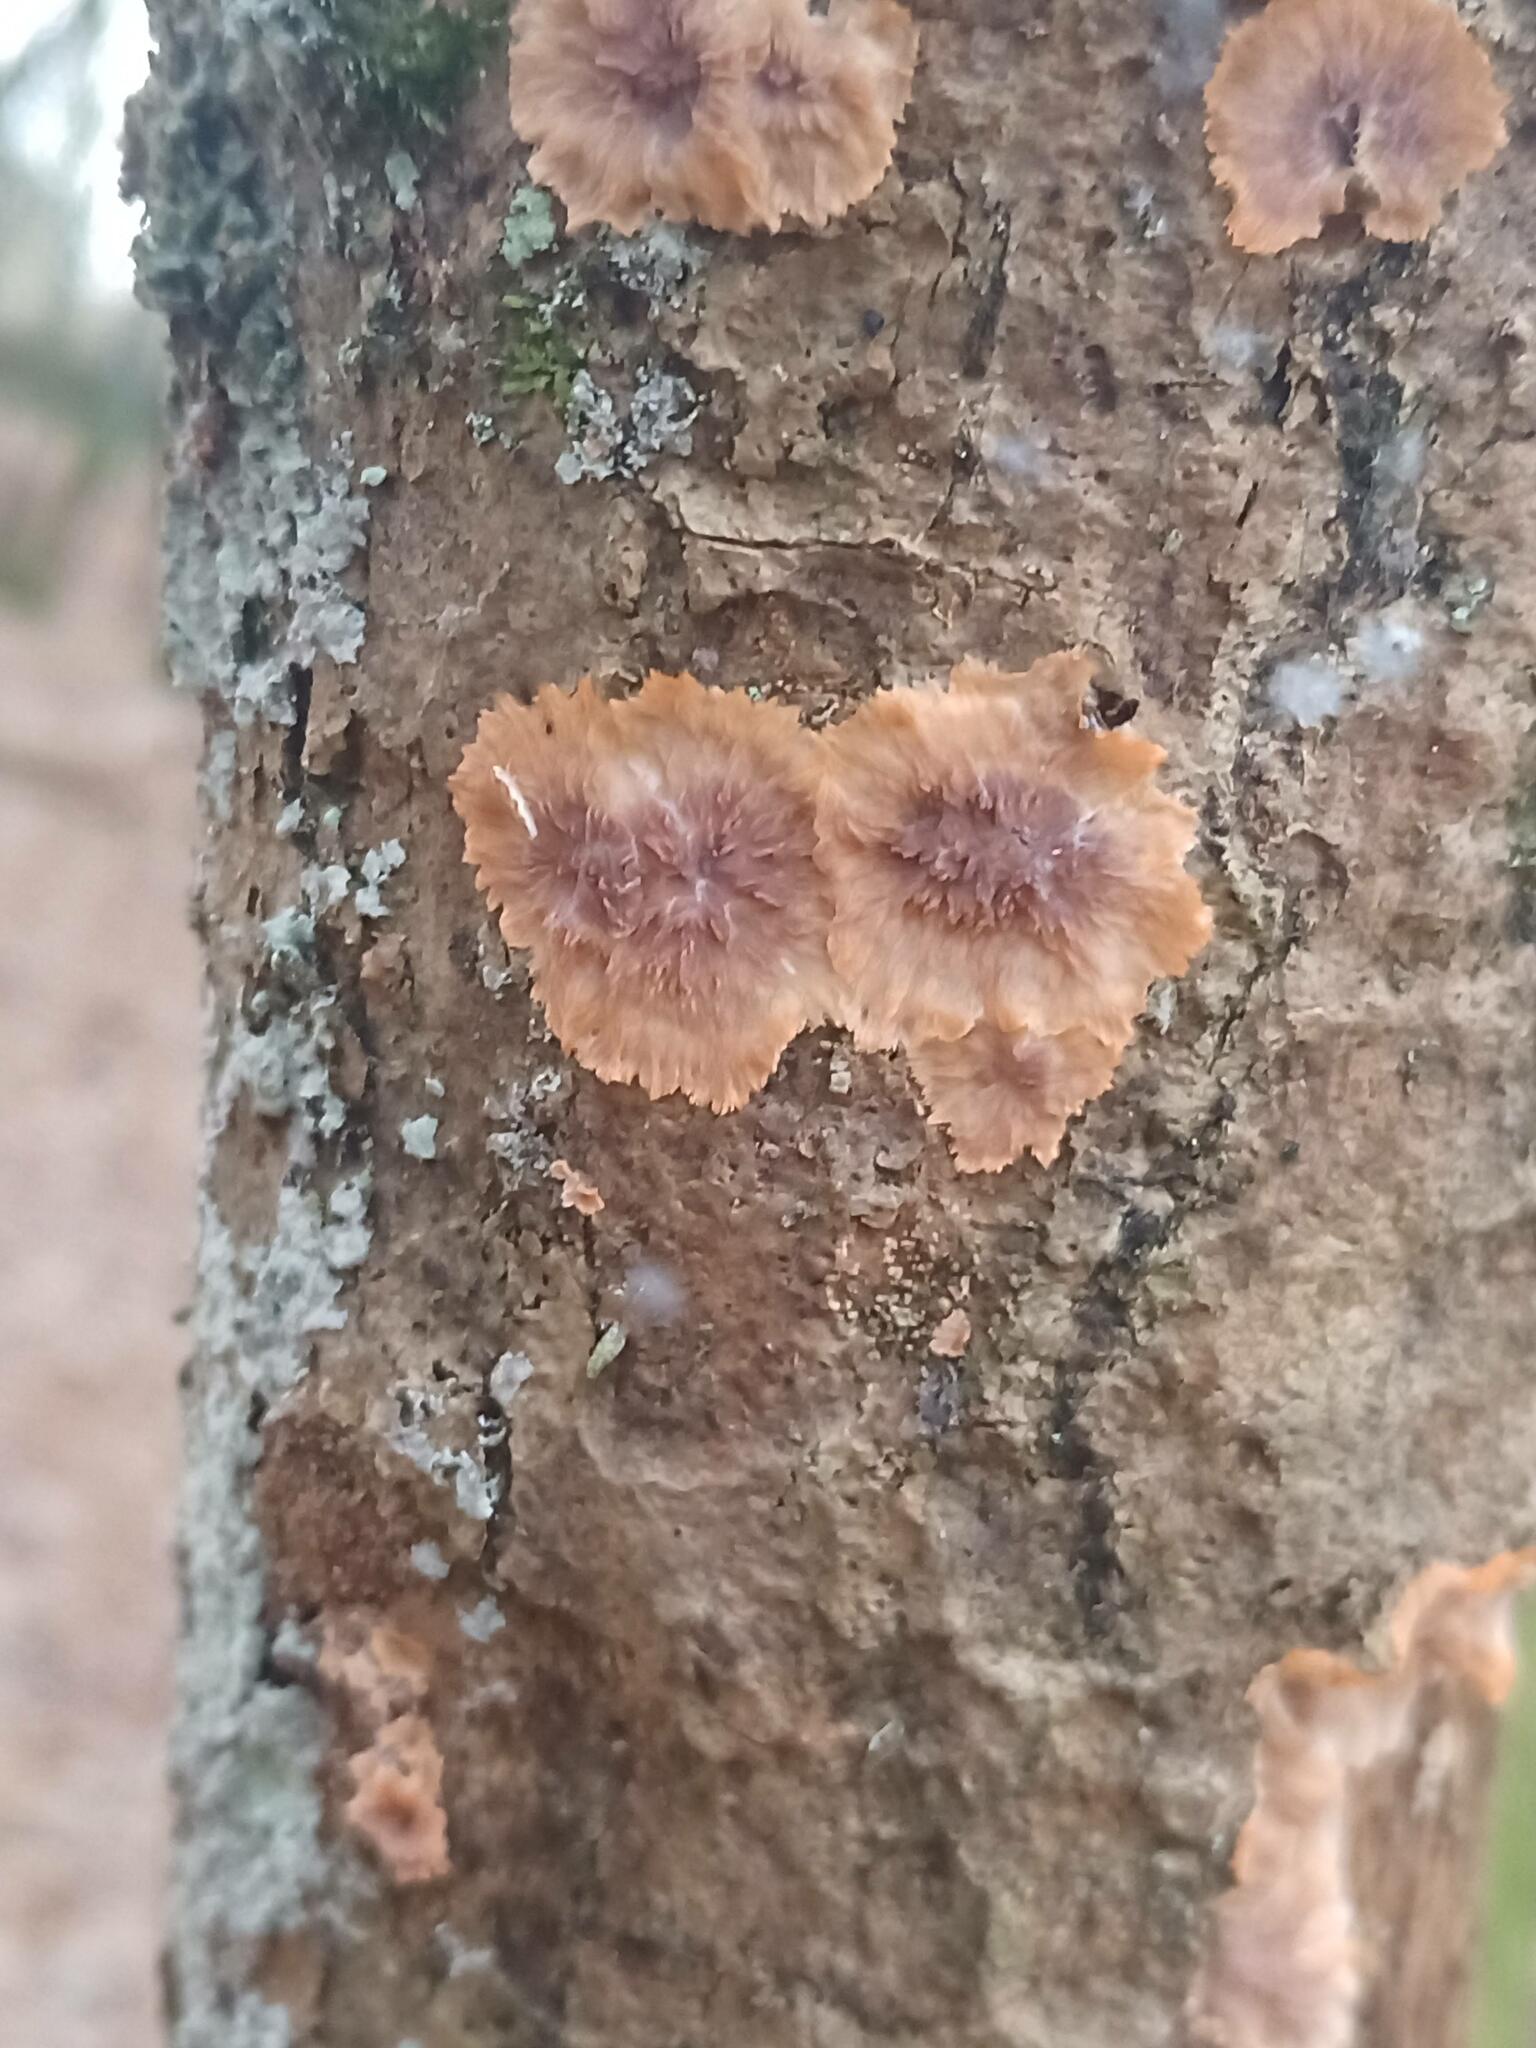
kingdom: Fungi
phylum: Basidiomycota
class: Agaricomycetes
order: Polyporales
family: Meruliaceae
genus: Phlebia
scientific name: Phlebia radiata
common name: Wrinkled crust
